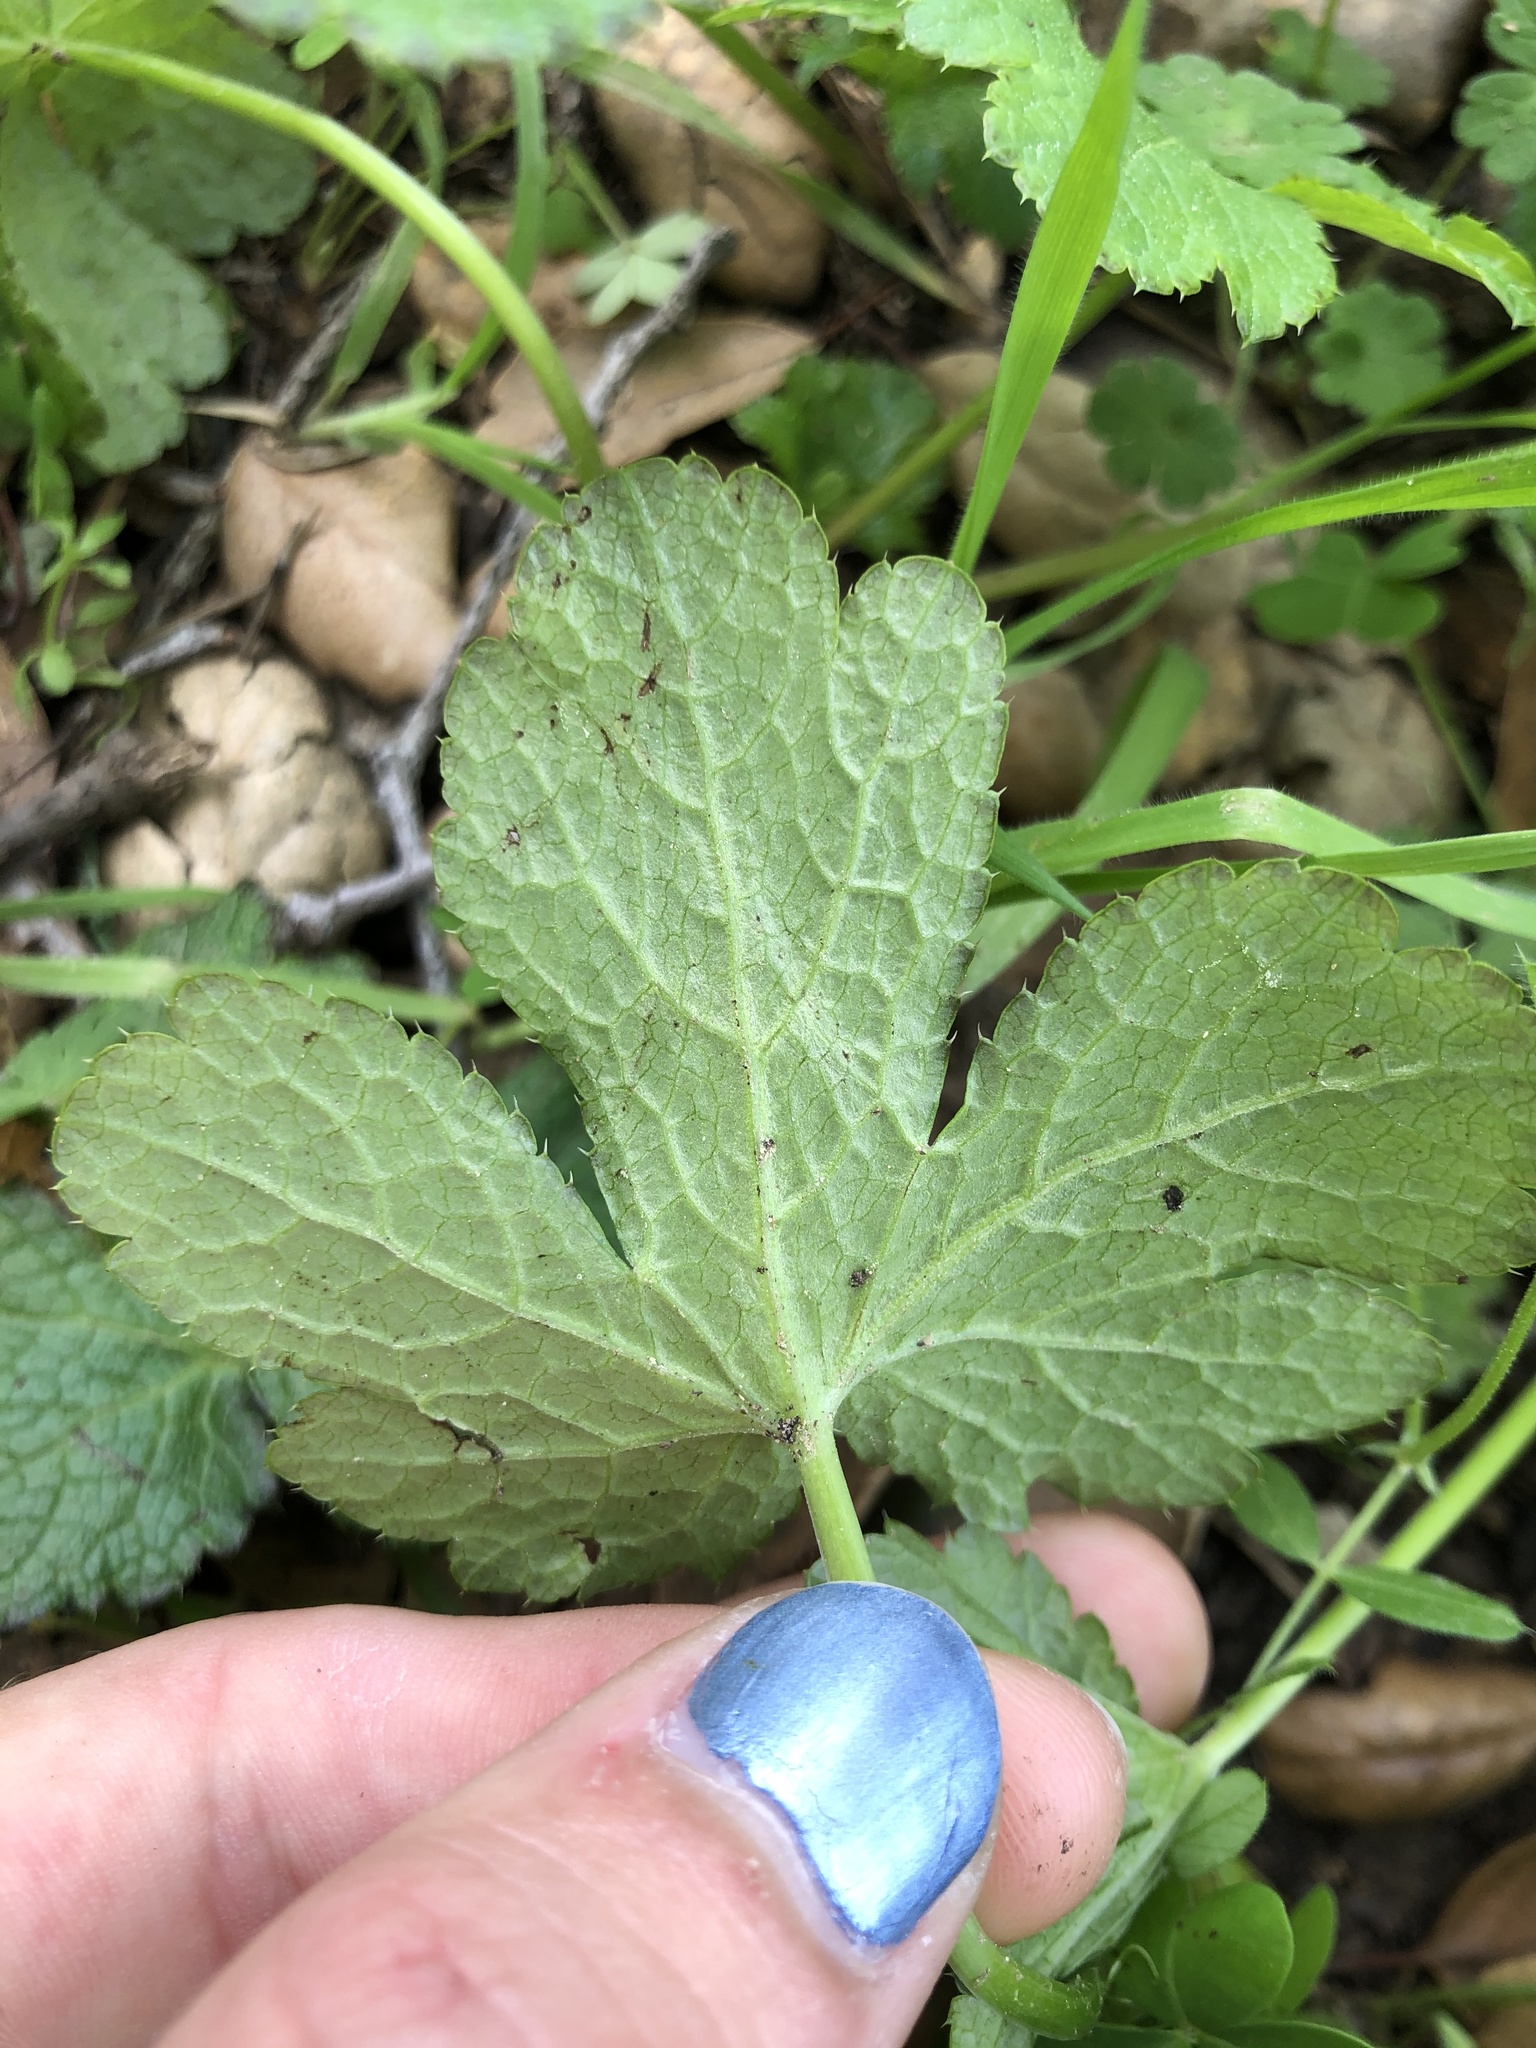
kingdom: Plantae
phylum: Tracheophyta
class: Magnoliopsida
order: Apiales
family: Apiaceae
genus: Sanicula
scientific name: Sanicula crassicaulis
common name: Western snakeroot
